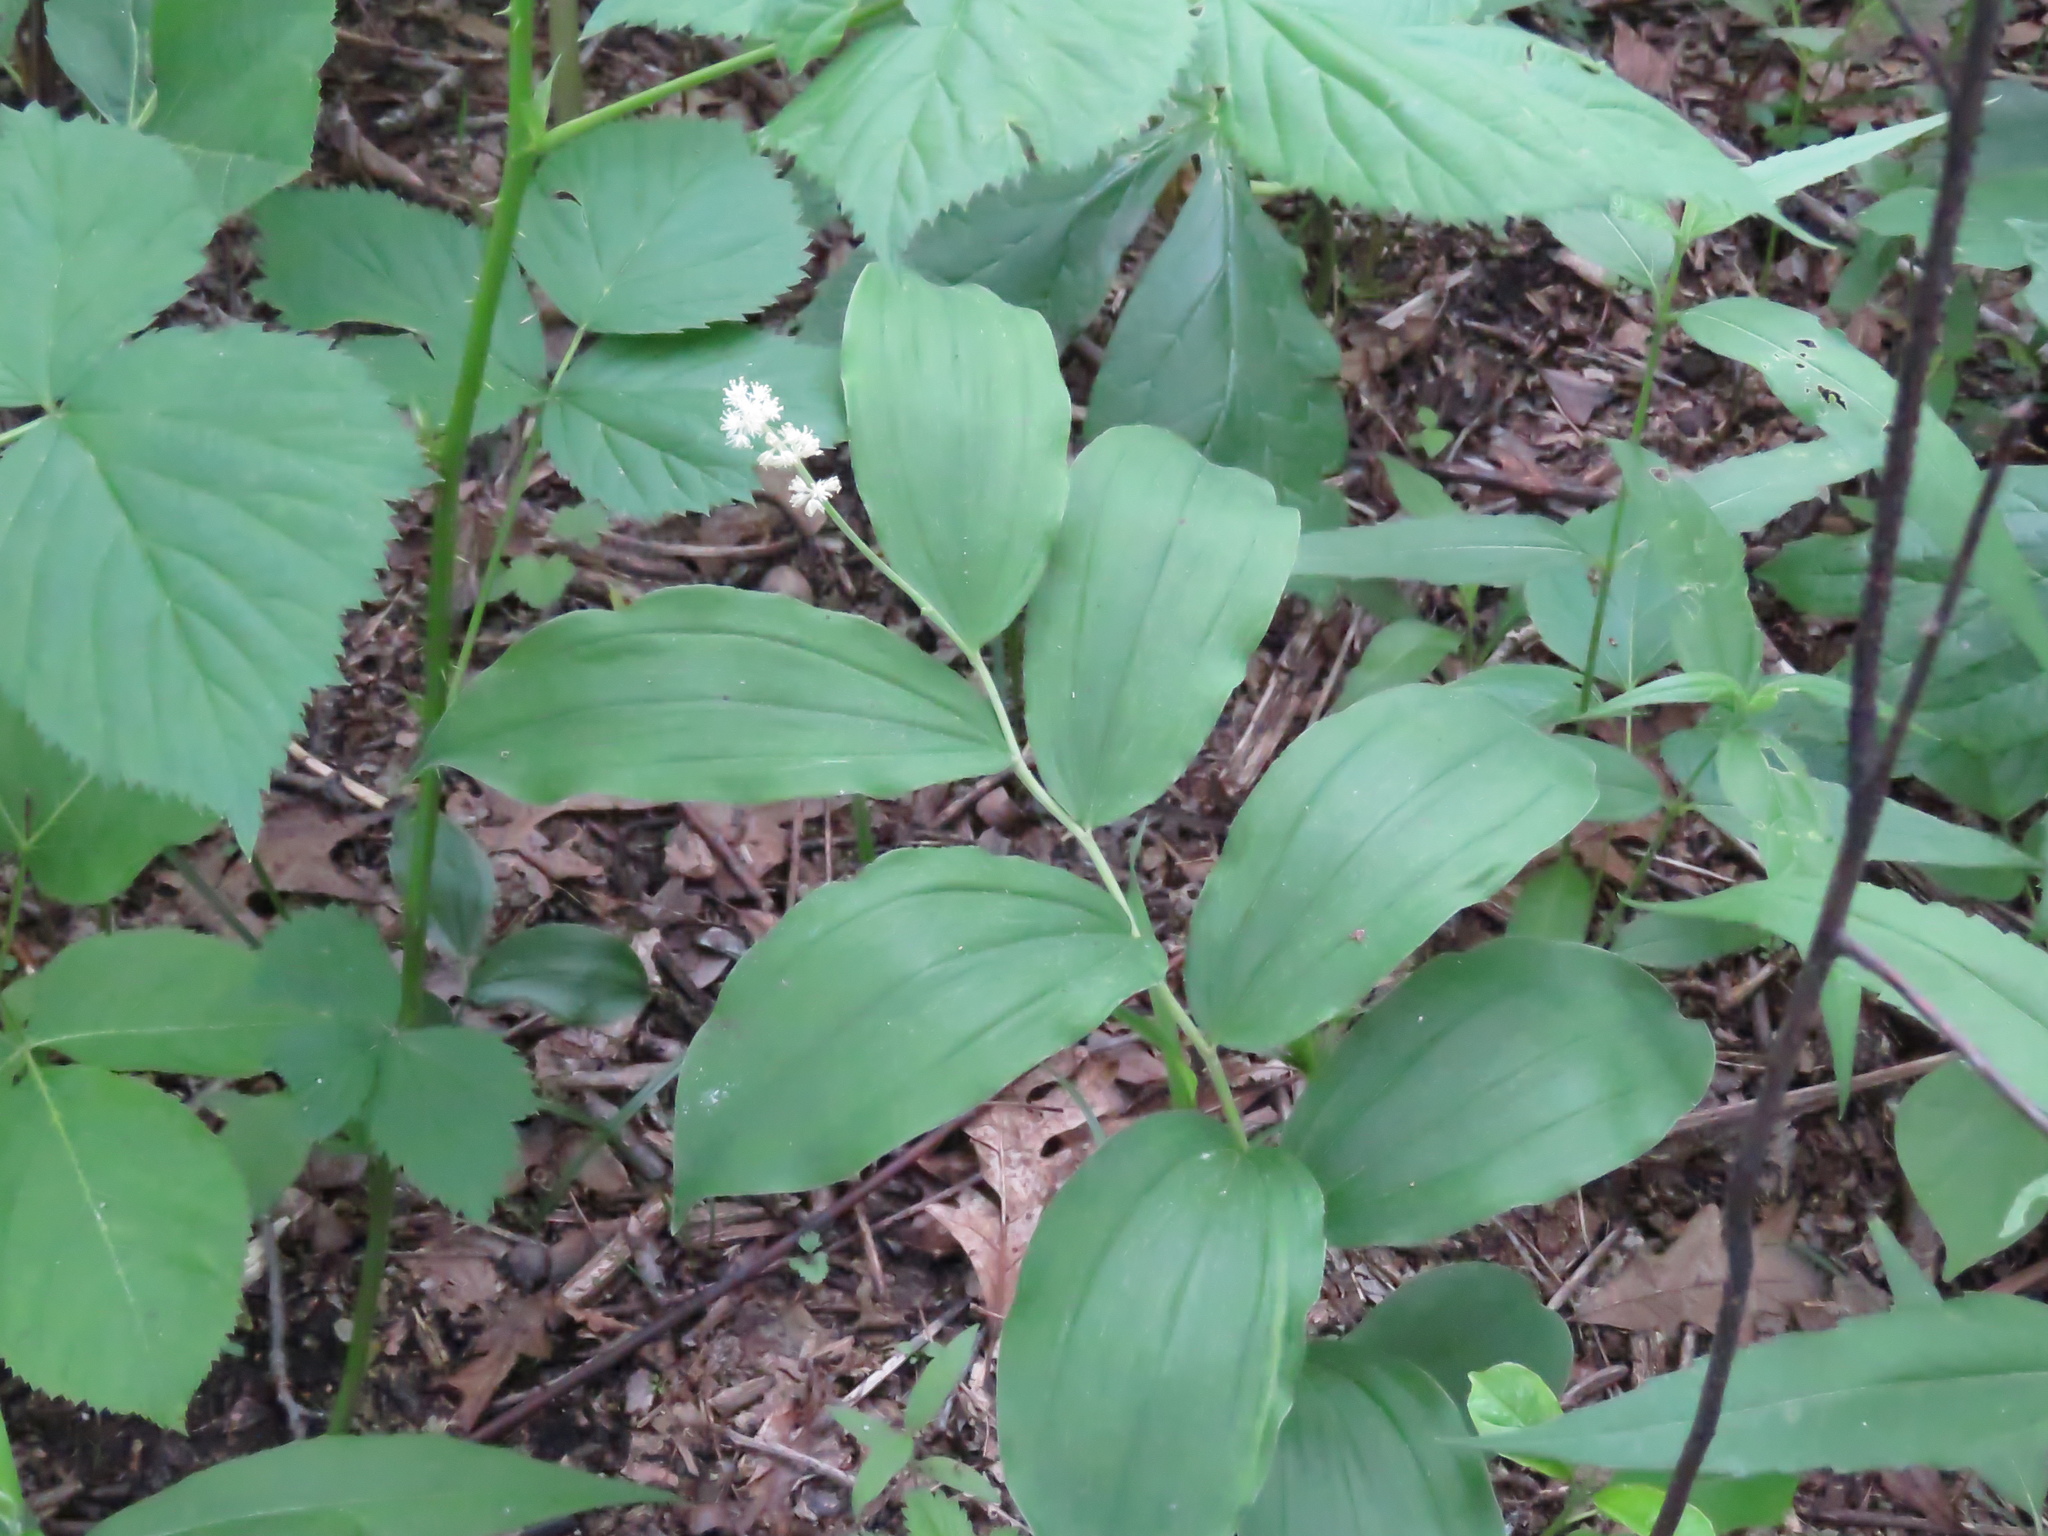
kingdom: Plantae
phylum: Tracheophyta
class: Liliopsida
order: Asparagales
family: Asparagaceae
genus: Maianthemum
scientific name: Maianthemum racemosum
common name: False spikenard
